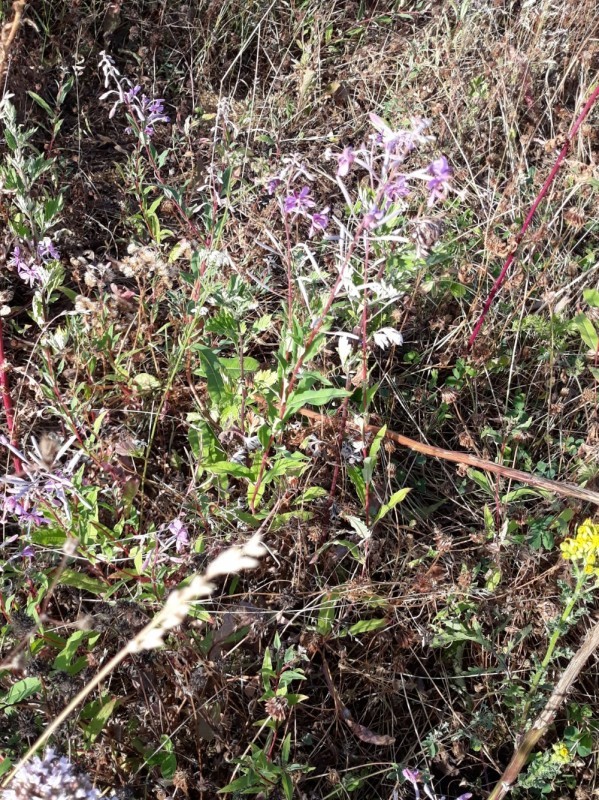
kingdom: Plantae
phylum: Tracheophyta
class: Magnoliopsida
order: Myrtales
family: Onagraceae
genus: Chamaenerion
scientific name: Chamaenerion angustifolium
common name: Fireweed
